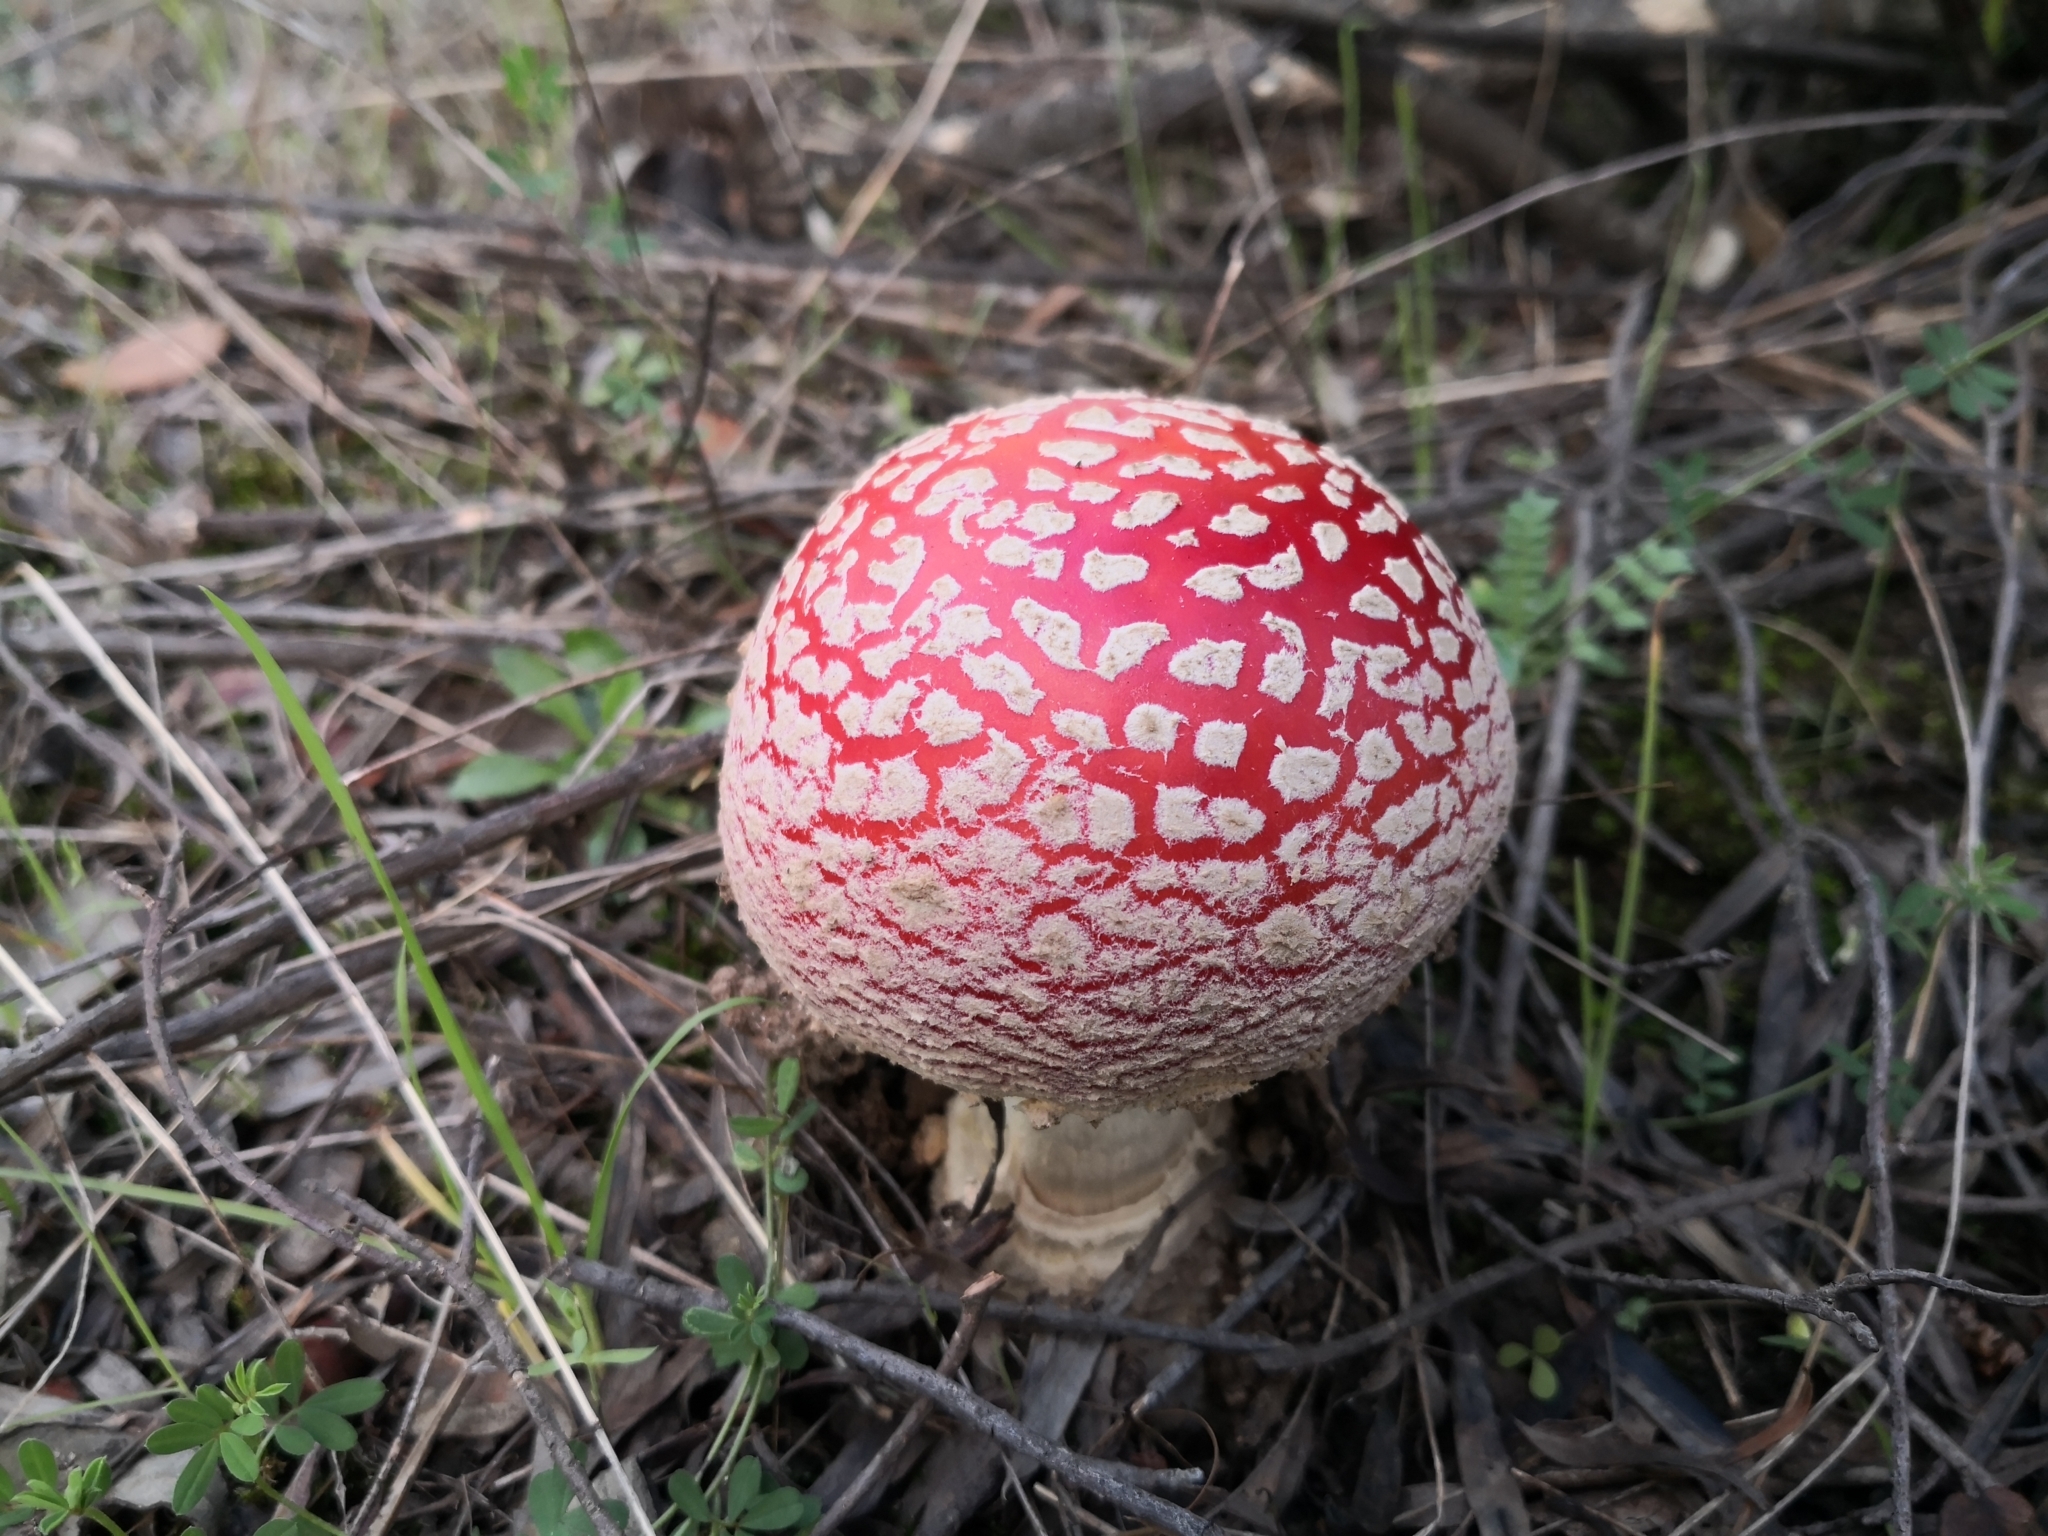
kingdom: Fungi
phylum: Basidiomycota
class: Agaricomycetes
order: Agaricales
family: Amanitaceae
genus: Amanita
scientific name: Amanita muscaria
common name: Fly agaric
